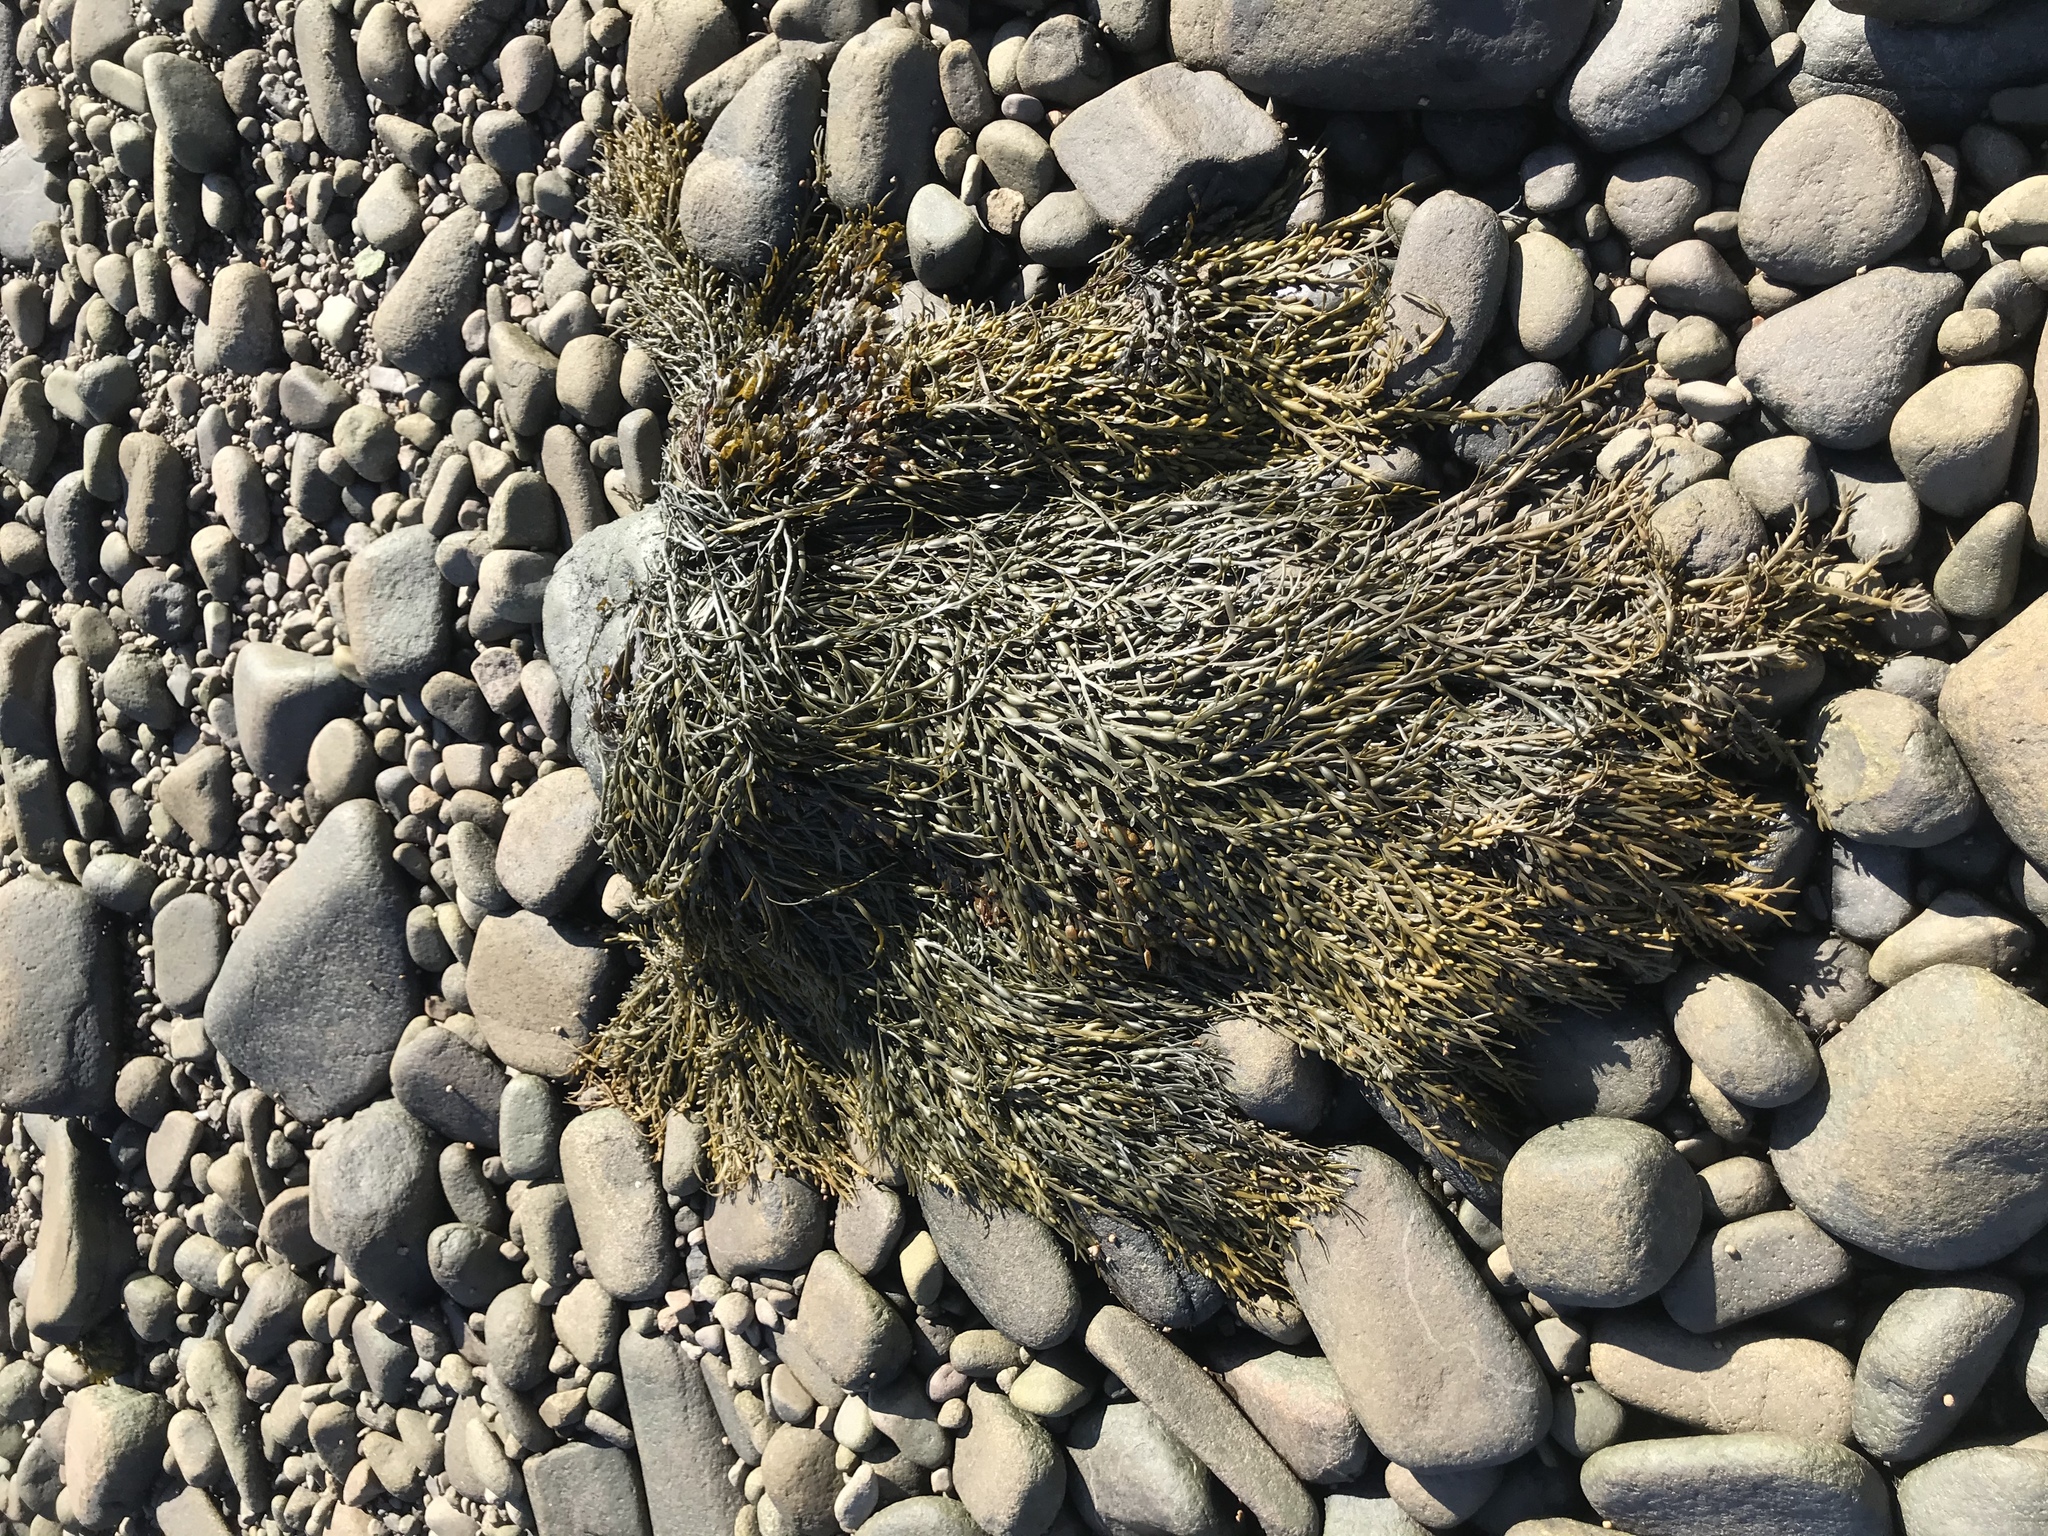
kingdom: Chromista
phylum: Ochrophyta
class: Phaeophyceae
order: Fucales
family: Fucaceae
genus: Ascophyllum
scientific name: Ascophyllum nodosum
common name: Knotted wrack
